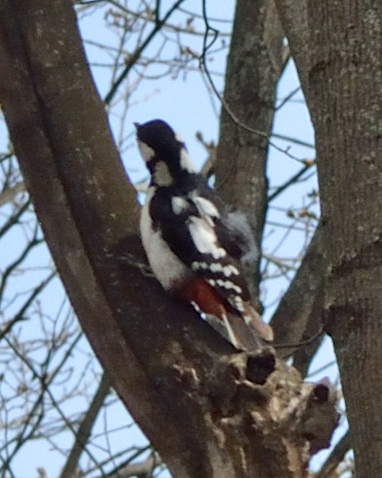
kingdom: Animalia
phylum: Chordata
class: Aves
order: Piciformes
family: Picidae
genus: Dendrocopos
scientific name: Dendrocopos major
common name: Great spotted woodpecker
